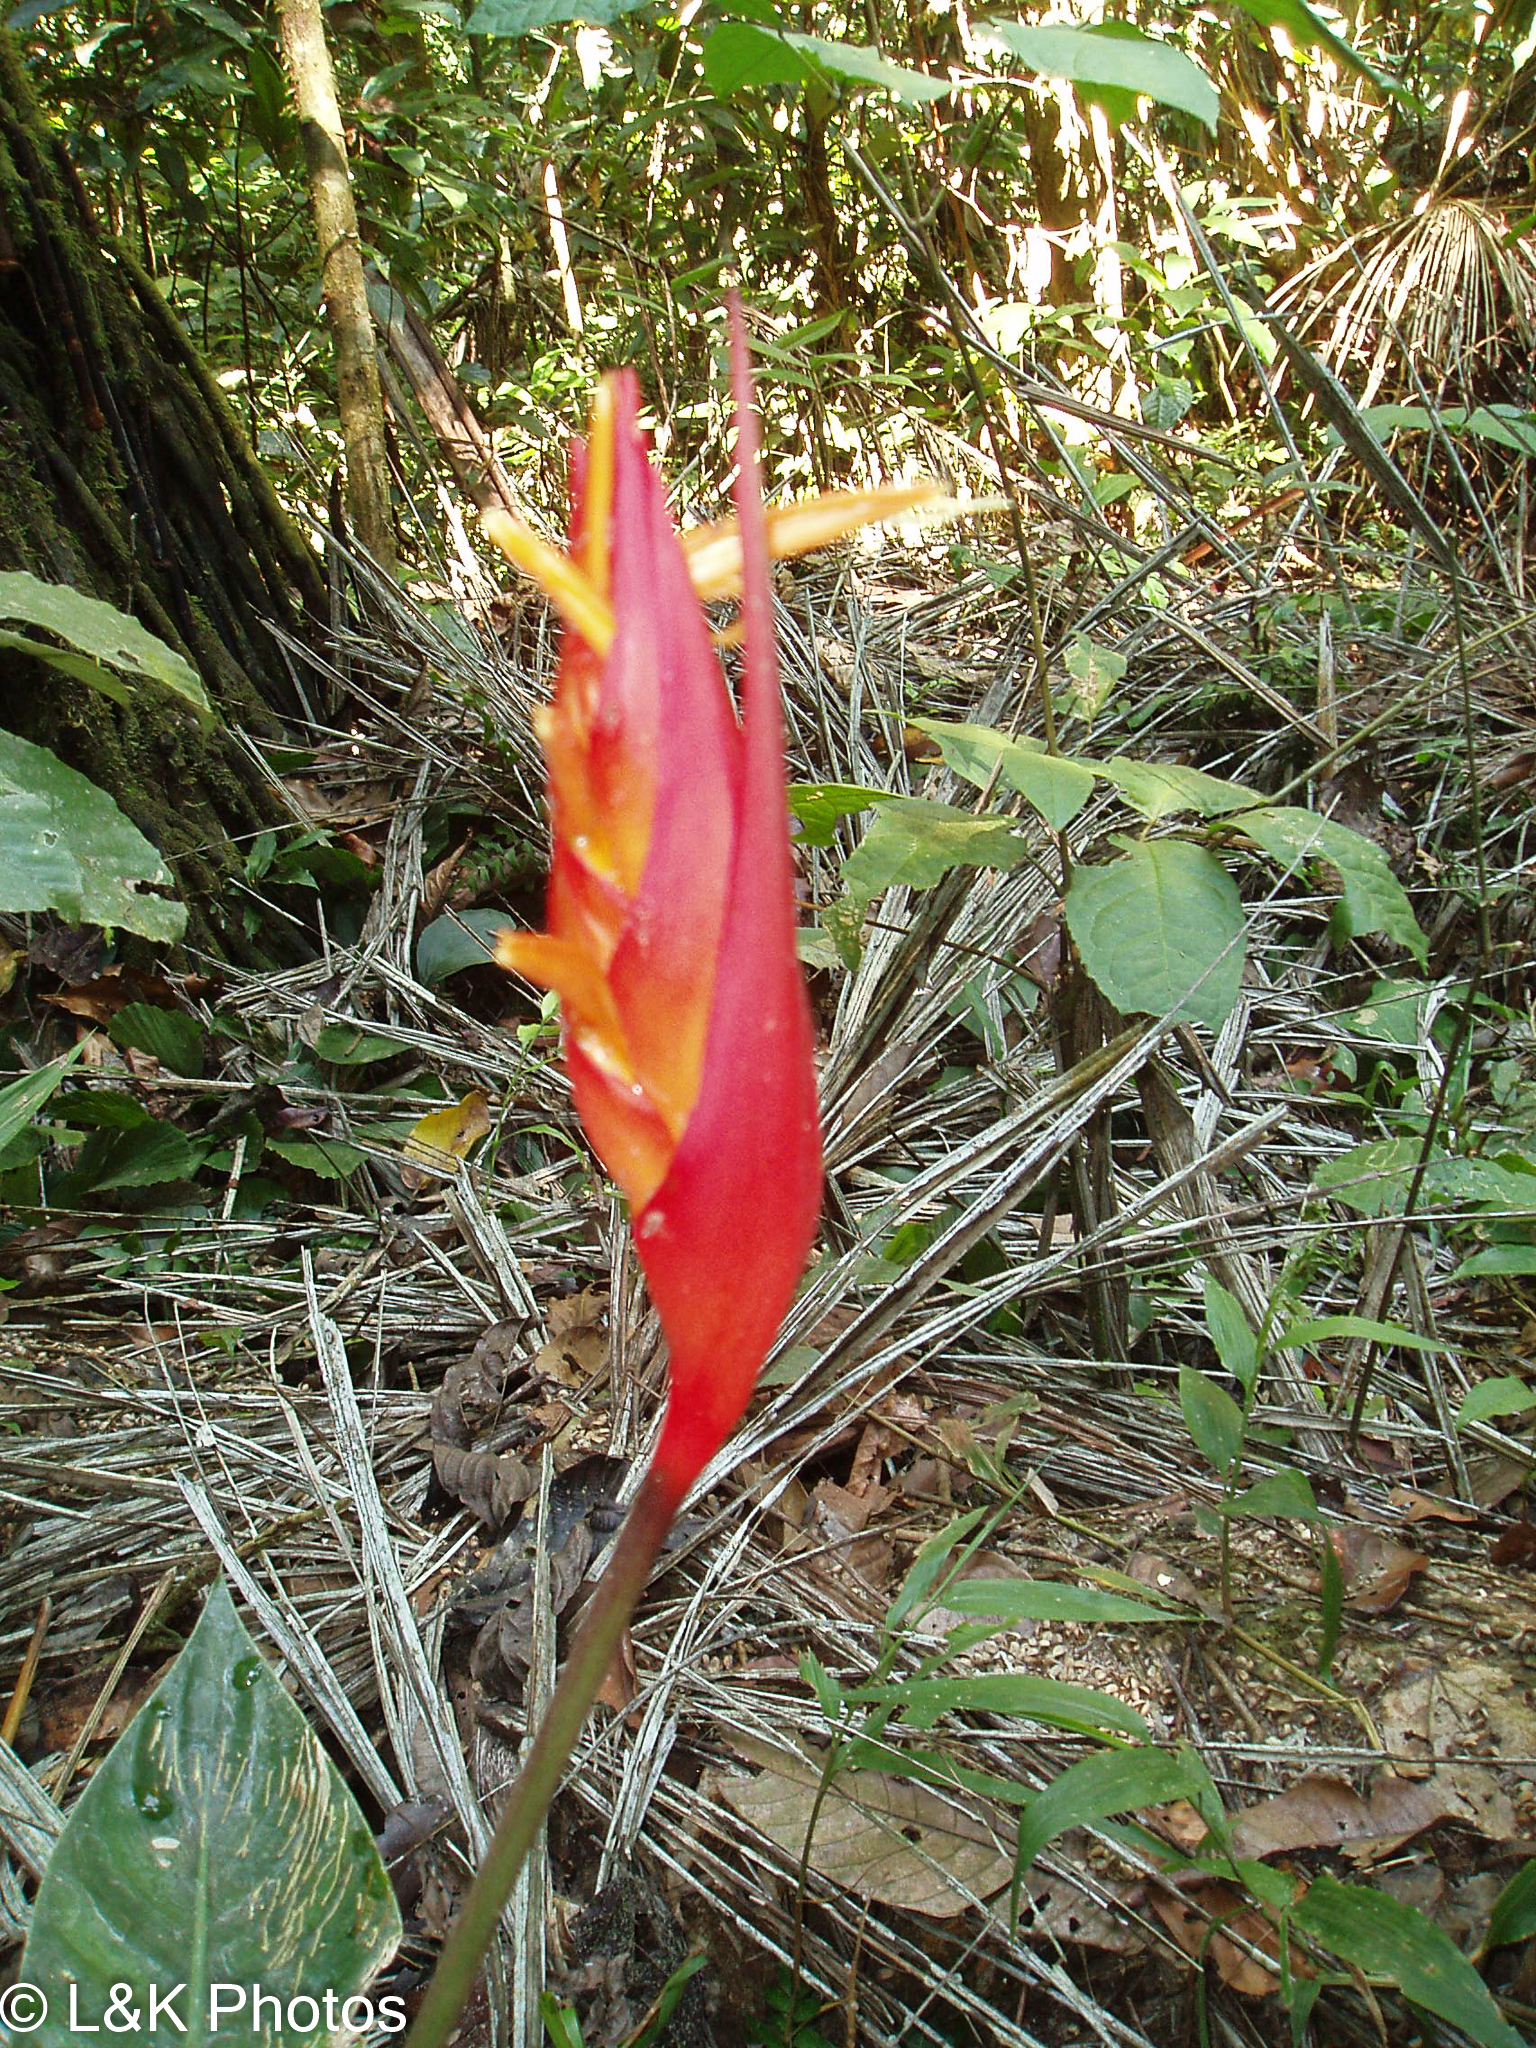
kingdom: Plantae
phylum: Tracheophyta
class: Liliopsida
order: Zingiberales
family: Heliconiaceae
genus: Heliconia
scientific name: Heliconia densiflora
